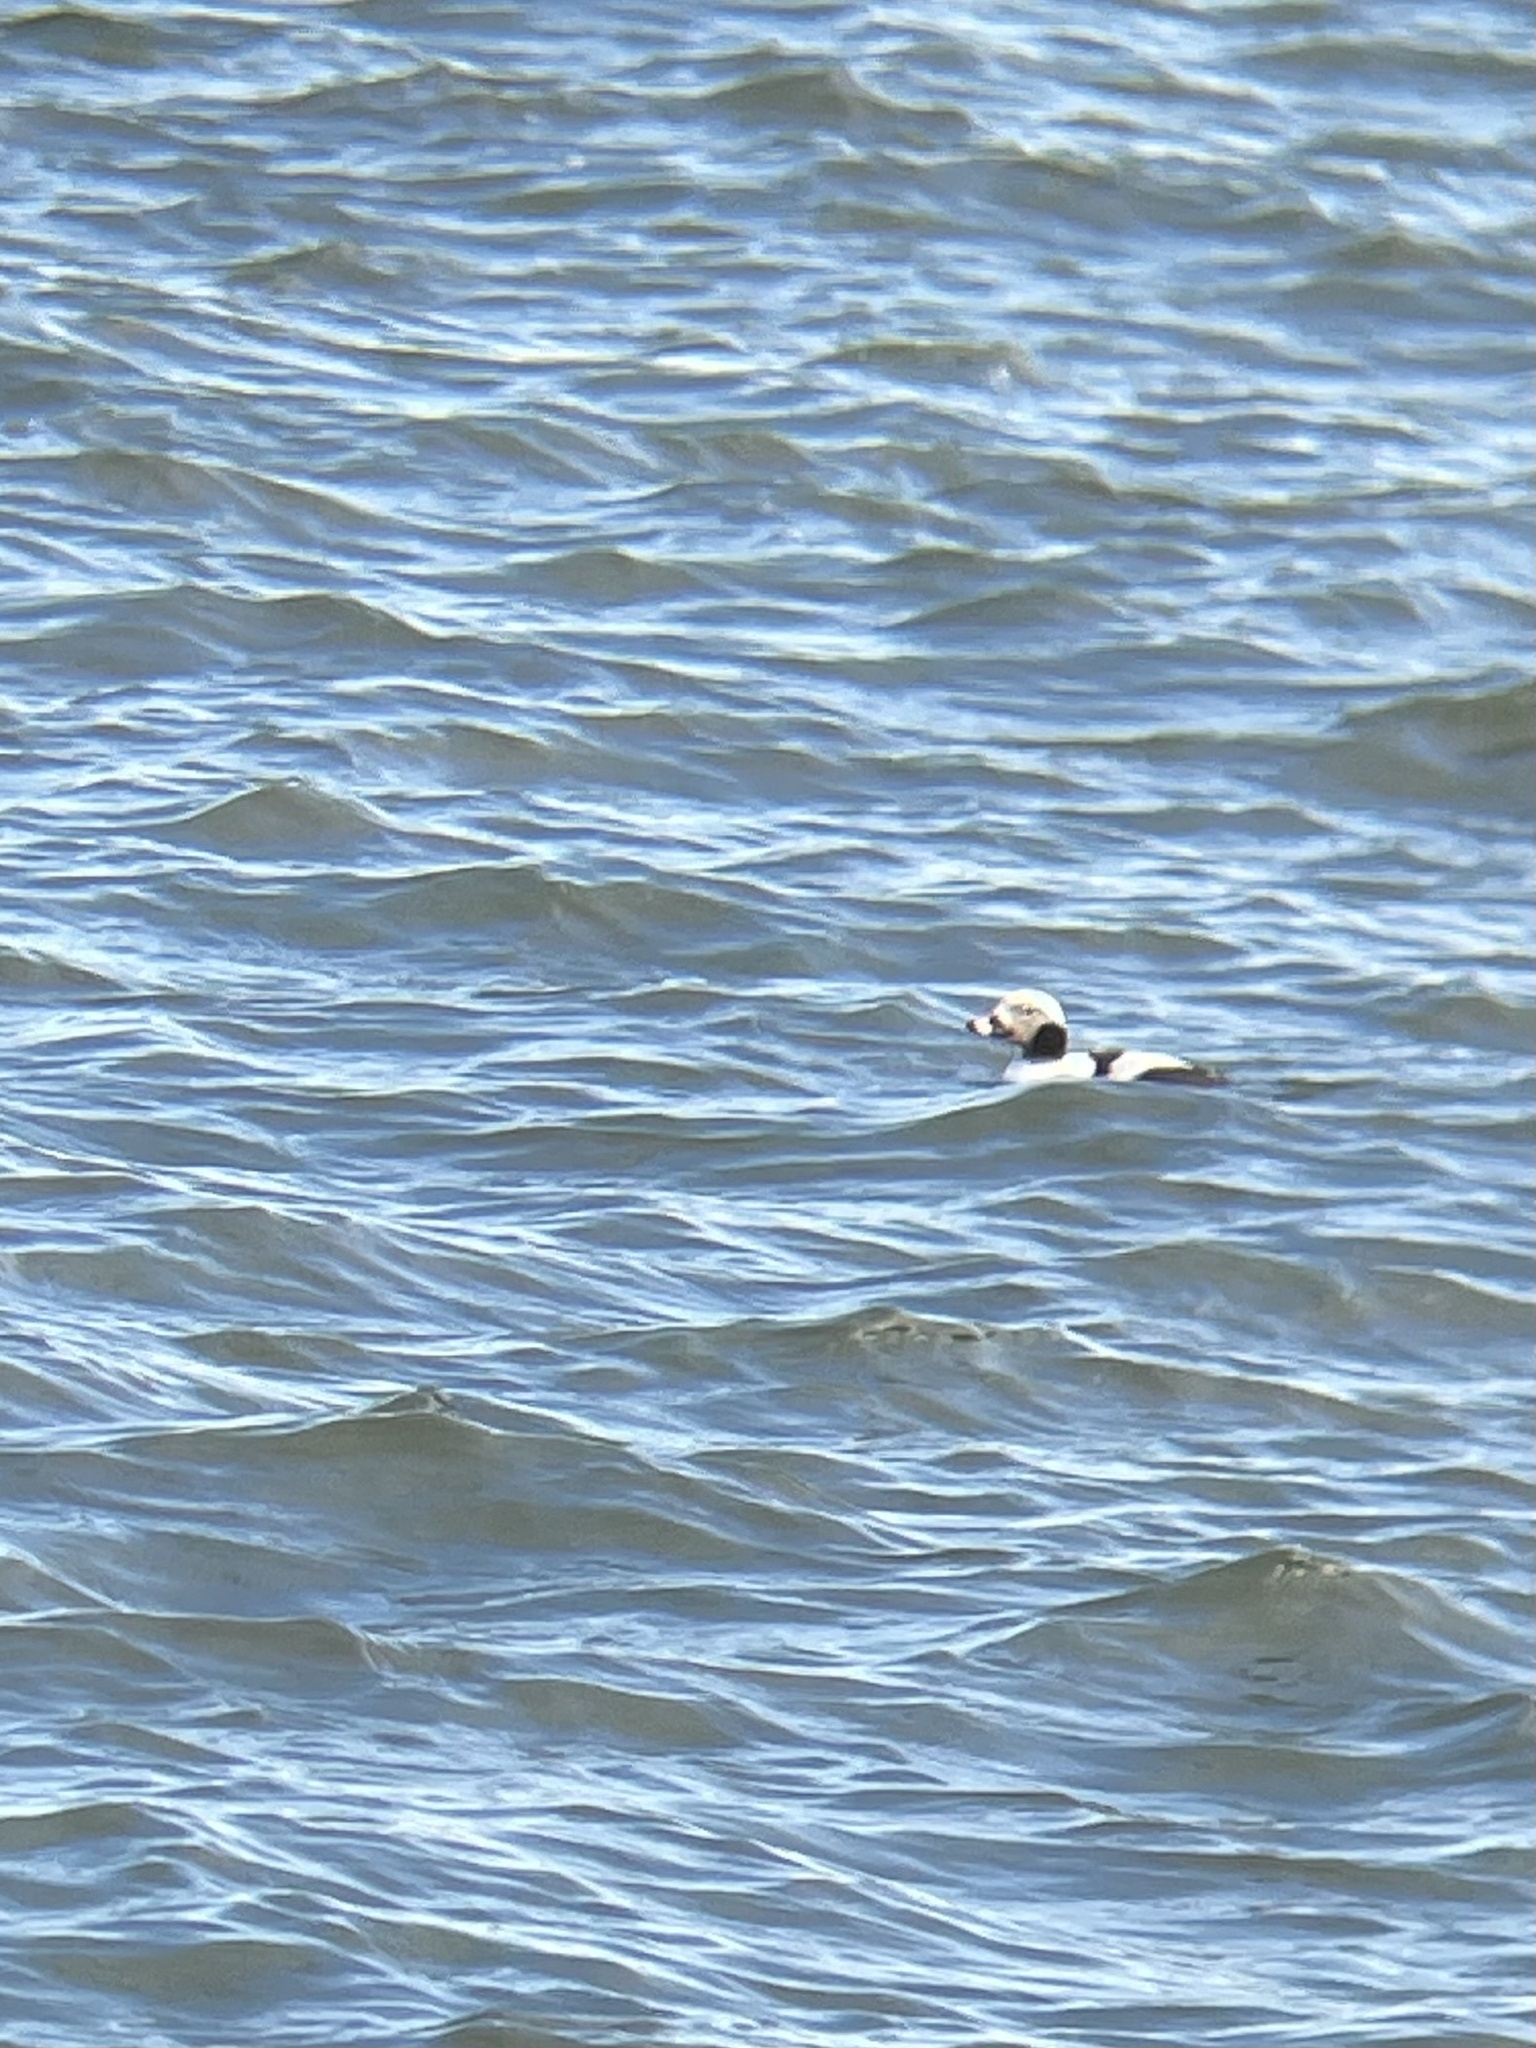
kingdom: Animalia
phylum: Chordata
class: Aves
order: Anseriformes
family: Anatidae
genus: Clangula
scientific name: Clangula hyemalis
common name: Long-tailed duck
